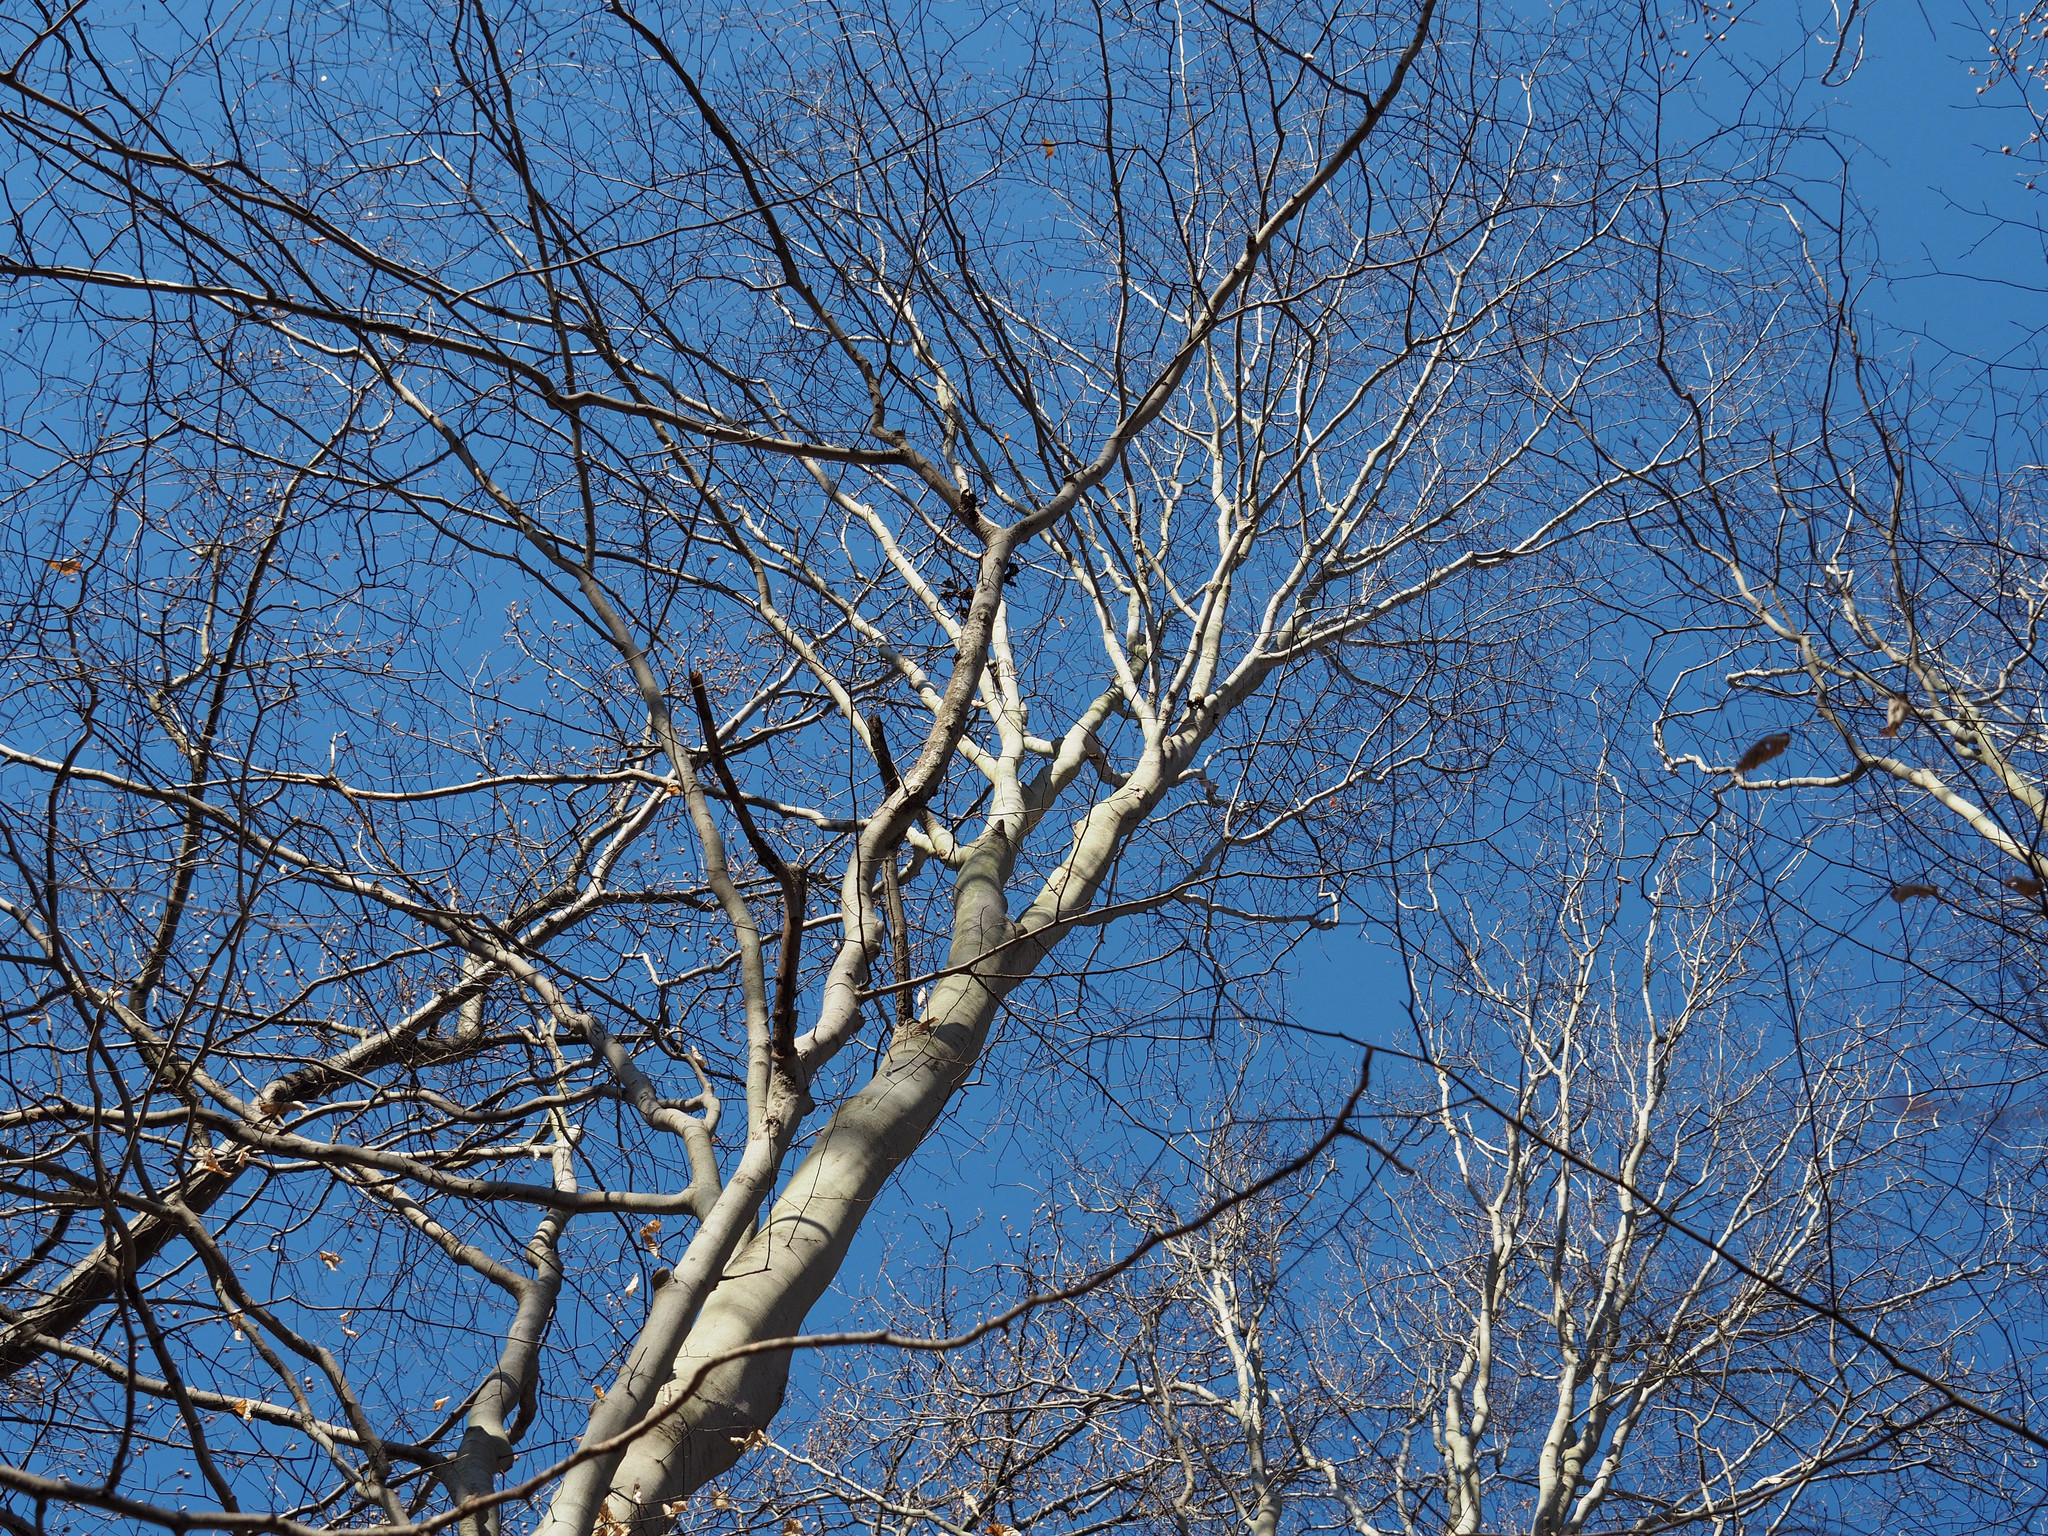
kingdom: Plantae
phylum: Tracheophyta
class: Magnoliopsida
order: Fagales
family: Fagaceae
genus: Fagus
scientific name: Fagus grandifolia
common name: American beech
